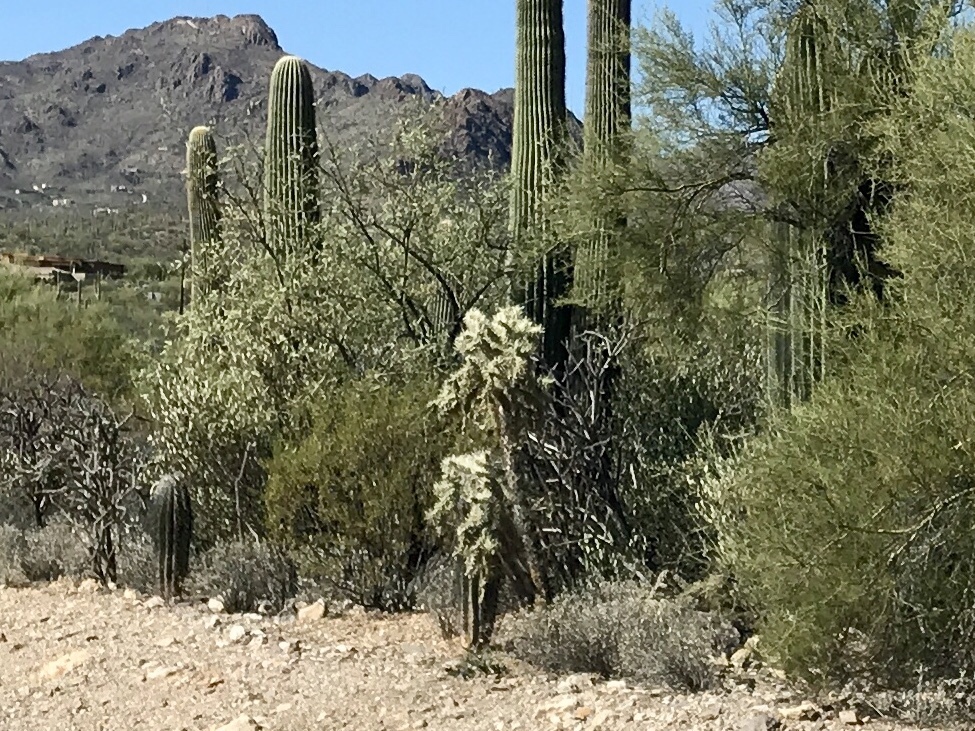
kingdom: Plantae
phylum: Tracheophyta
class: Magnoliopsida
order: Caryophyllales
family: Cactaceae
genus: Cylindropuntia
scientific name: Cylindropuntia fulgida
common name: Jumping cholla
